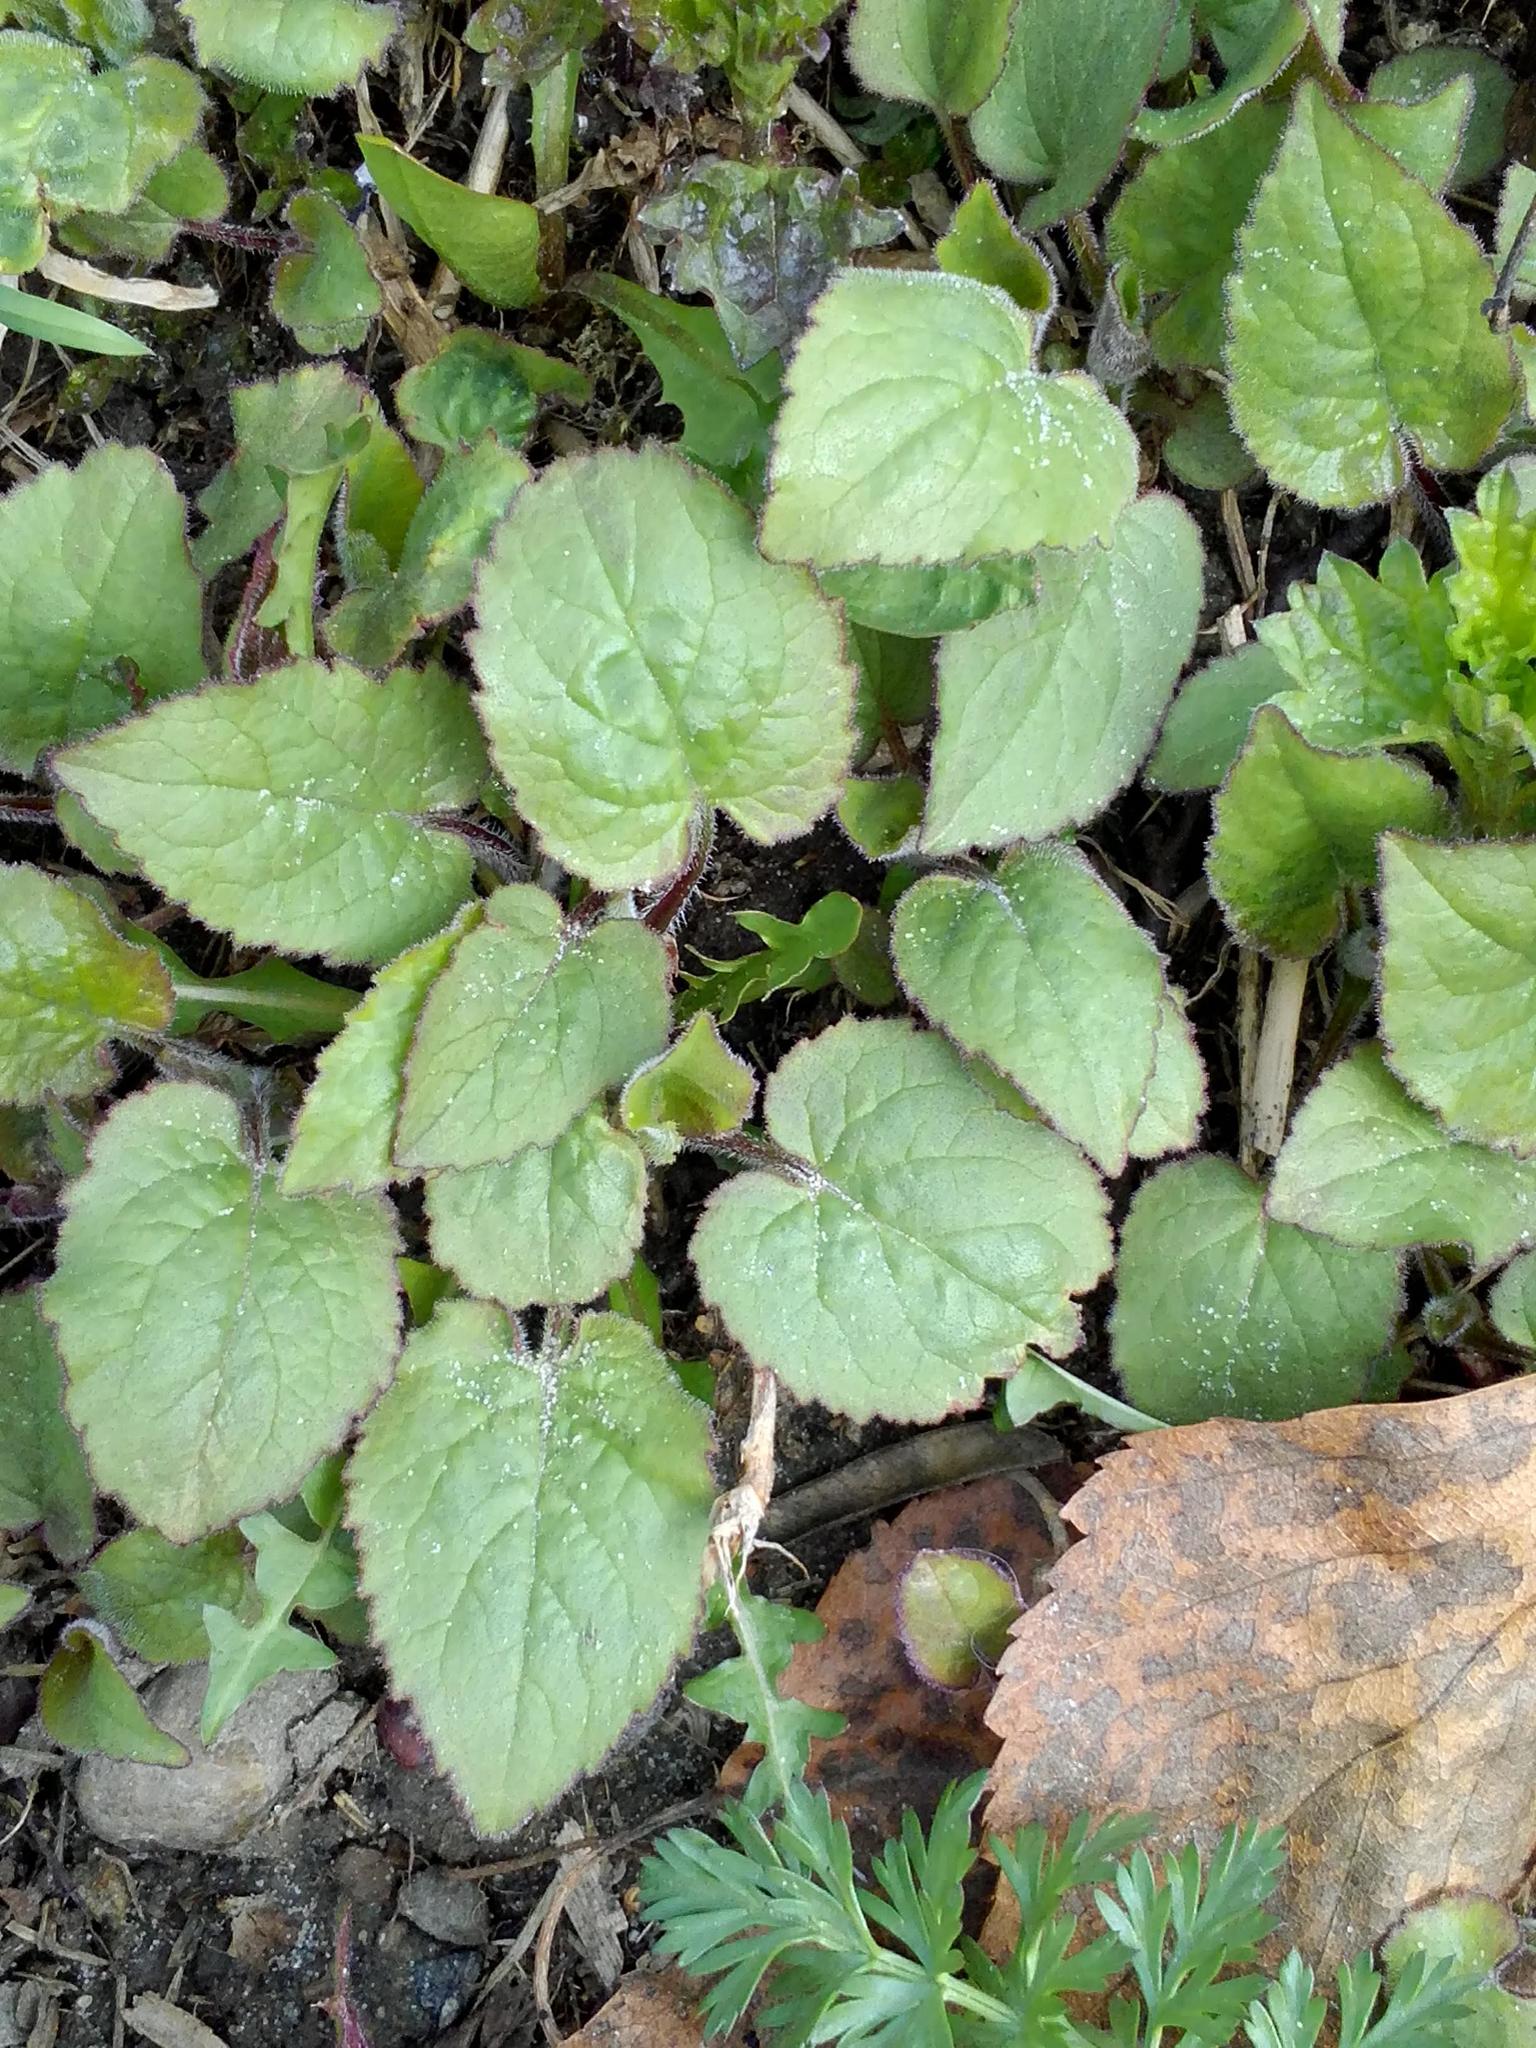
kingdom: Plantae
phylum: Tracheophyta
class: Magnoliopsida
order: Asterales
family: Campanulaceae
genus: Campanula
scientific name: Campanula rapunculoides
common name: Creeping bellflower
